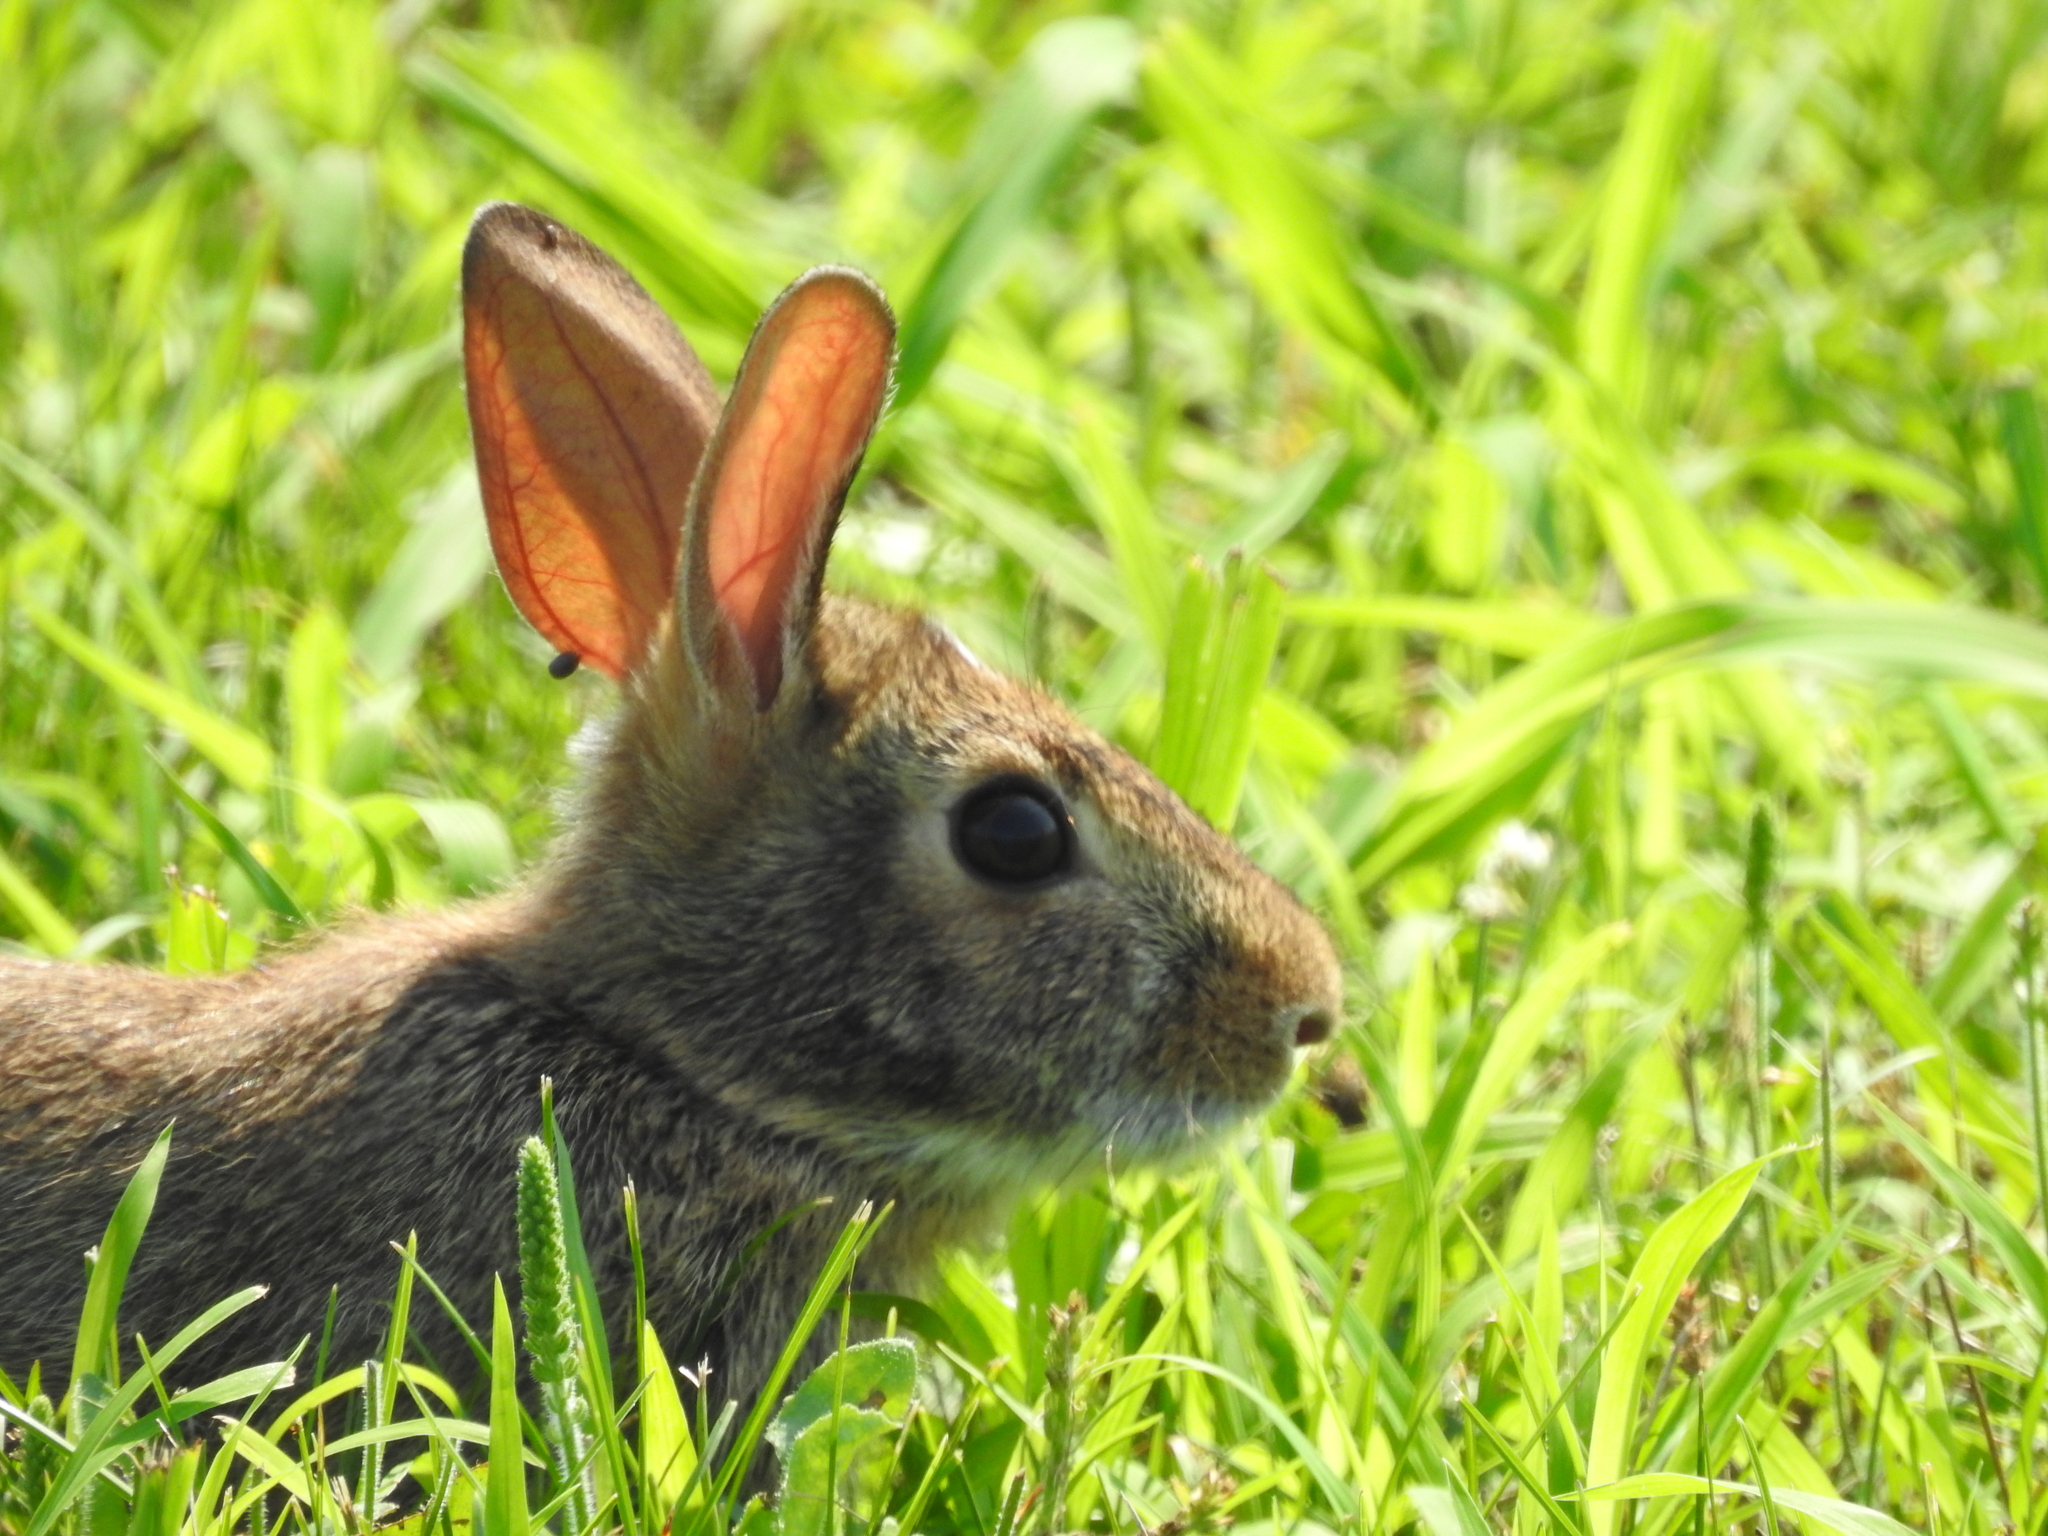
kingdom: Animalia
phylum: Chordata
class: Mammalia
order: Lagomorpha
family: Leporidae
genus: Sylvilagus
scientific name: Sylvilagus floridanus
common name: Eastern cottontail
